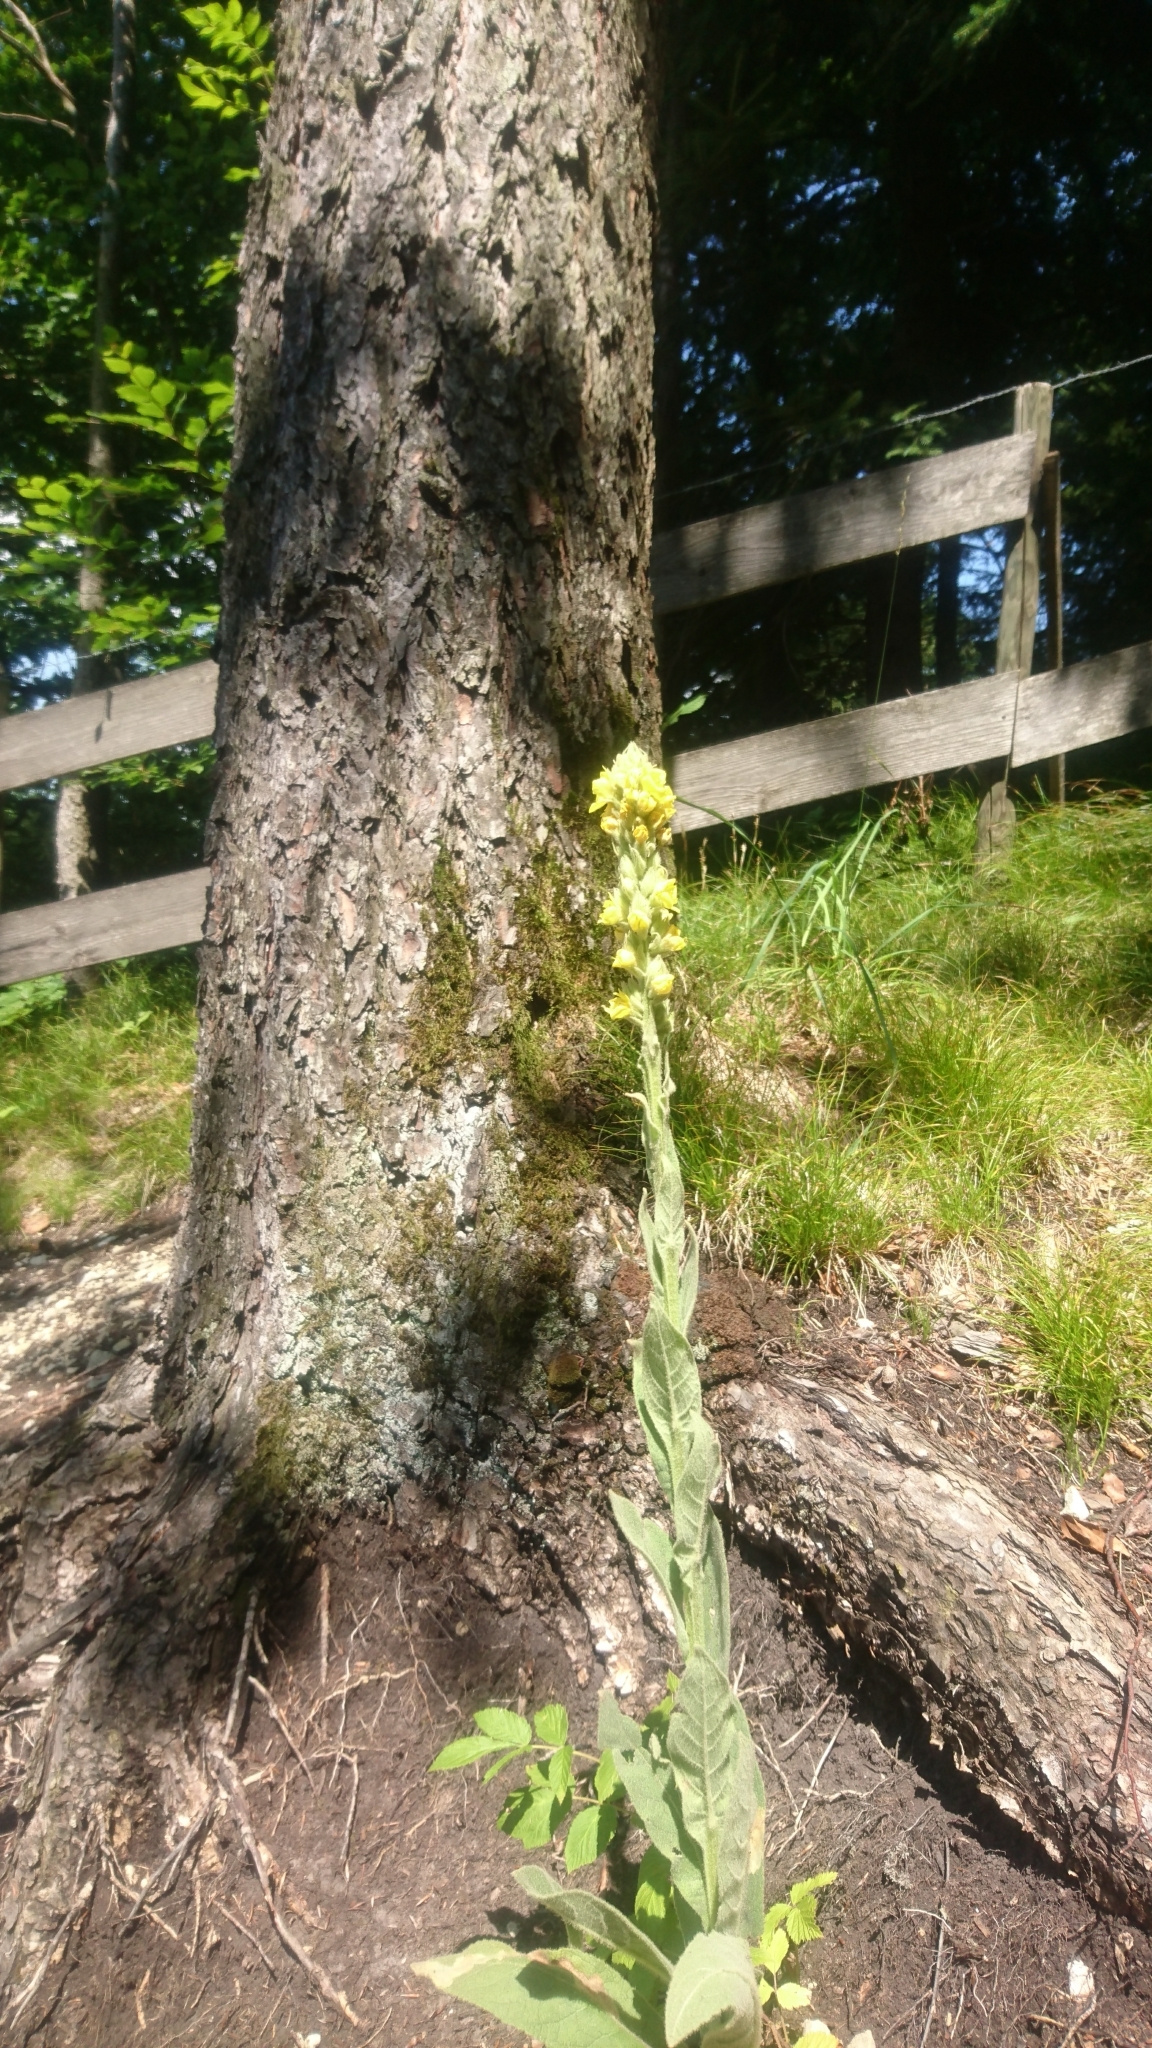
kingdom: Plantae
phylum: Tracheophyta
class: Magnoliopsida
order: Lamiales
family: Scrophulariaceae
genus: Verbascum
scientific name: Verbascum thapsus
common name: Common mullein
